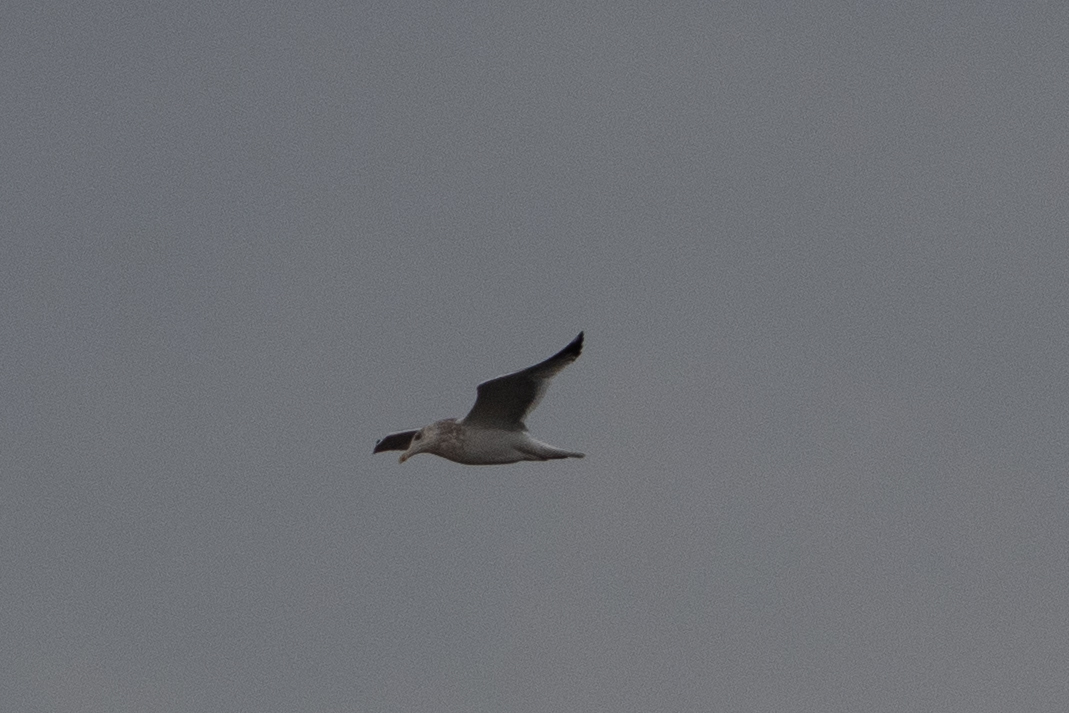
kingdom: Animalia
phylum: Chordata
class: Aves
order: Charadriiformes
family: Laridae
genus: Larus
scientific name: Larus argentatus
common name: Herring gull
